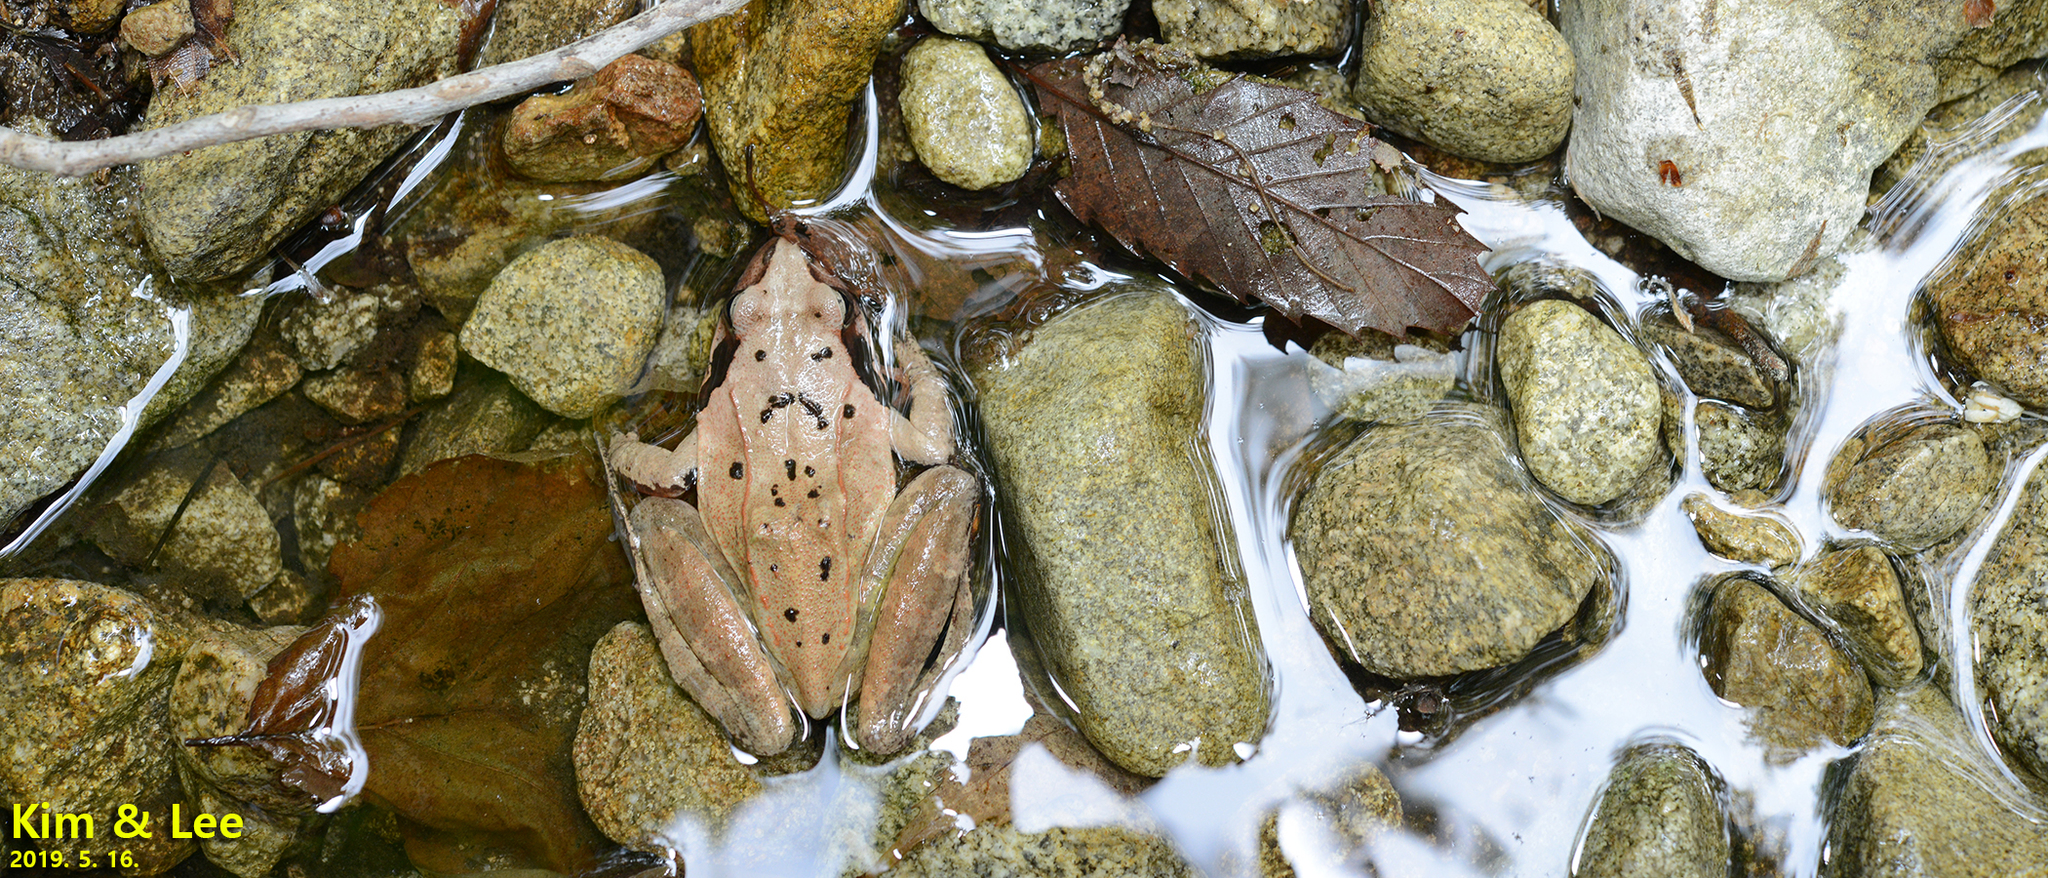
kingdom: Animalia
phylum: Chordata
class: Amphibia
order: Anura
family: Ranidae
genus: Rana
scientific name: Rana uenoi
